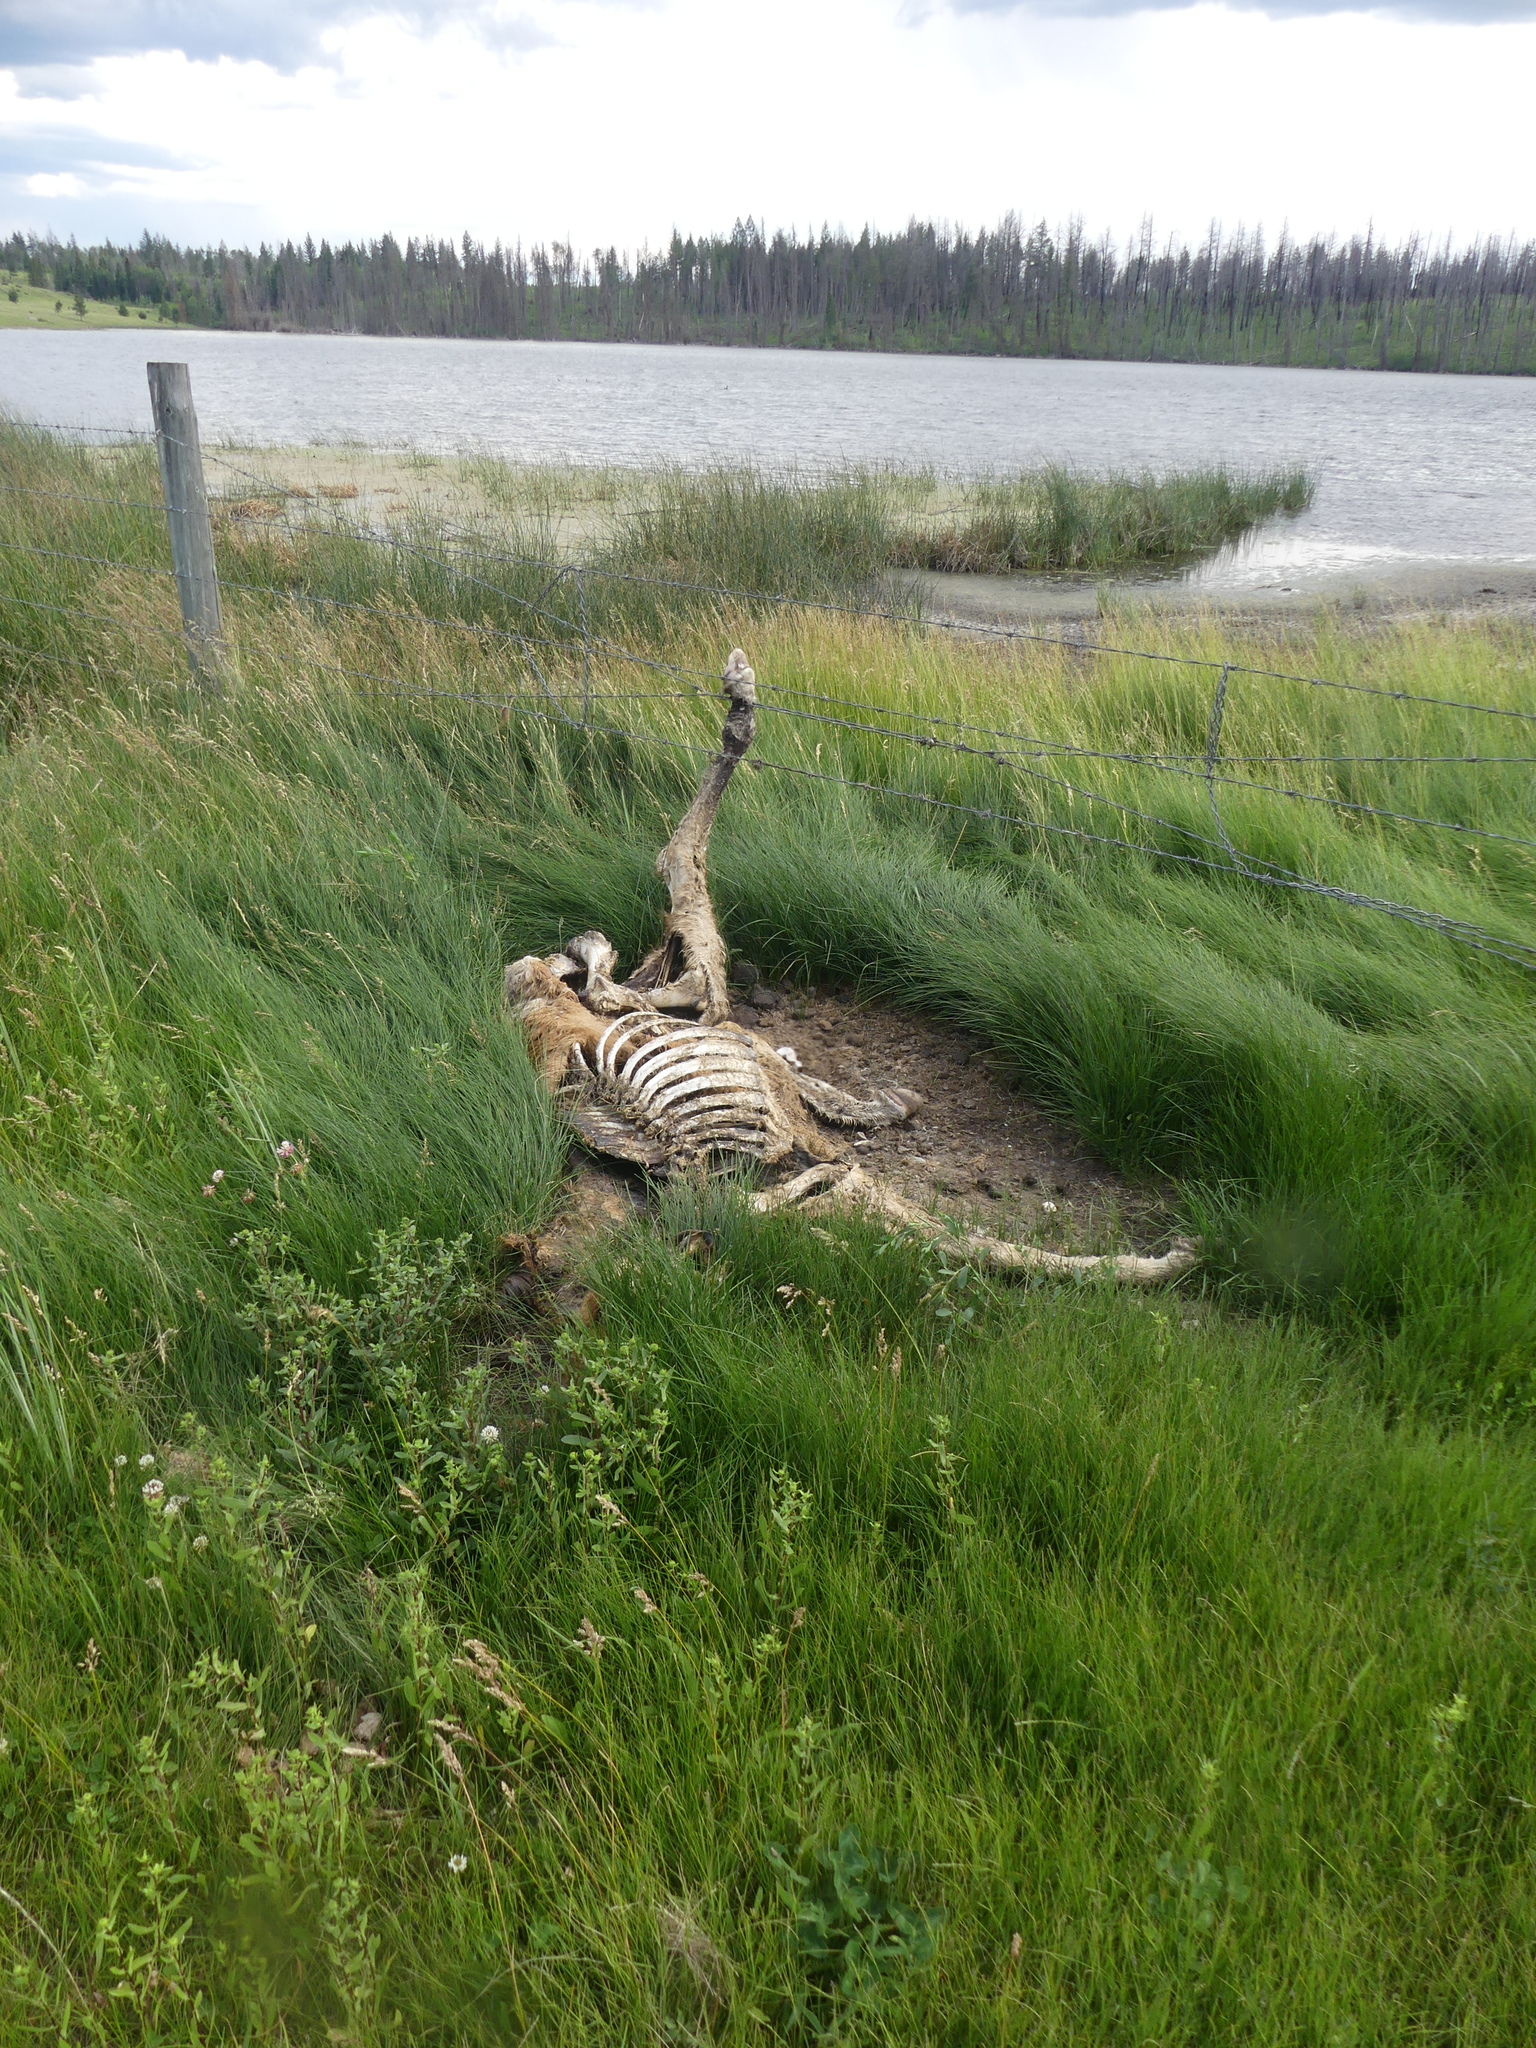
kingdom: Animalia
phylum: Chordata
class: Mammalia
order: Perissodactyla
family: Equidae
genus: Equus
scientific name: Equus caballus
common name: Horse
